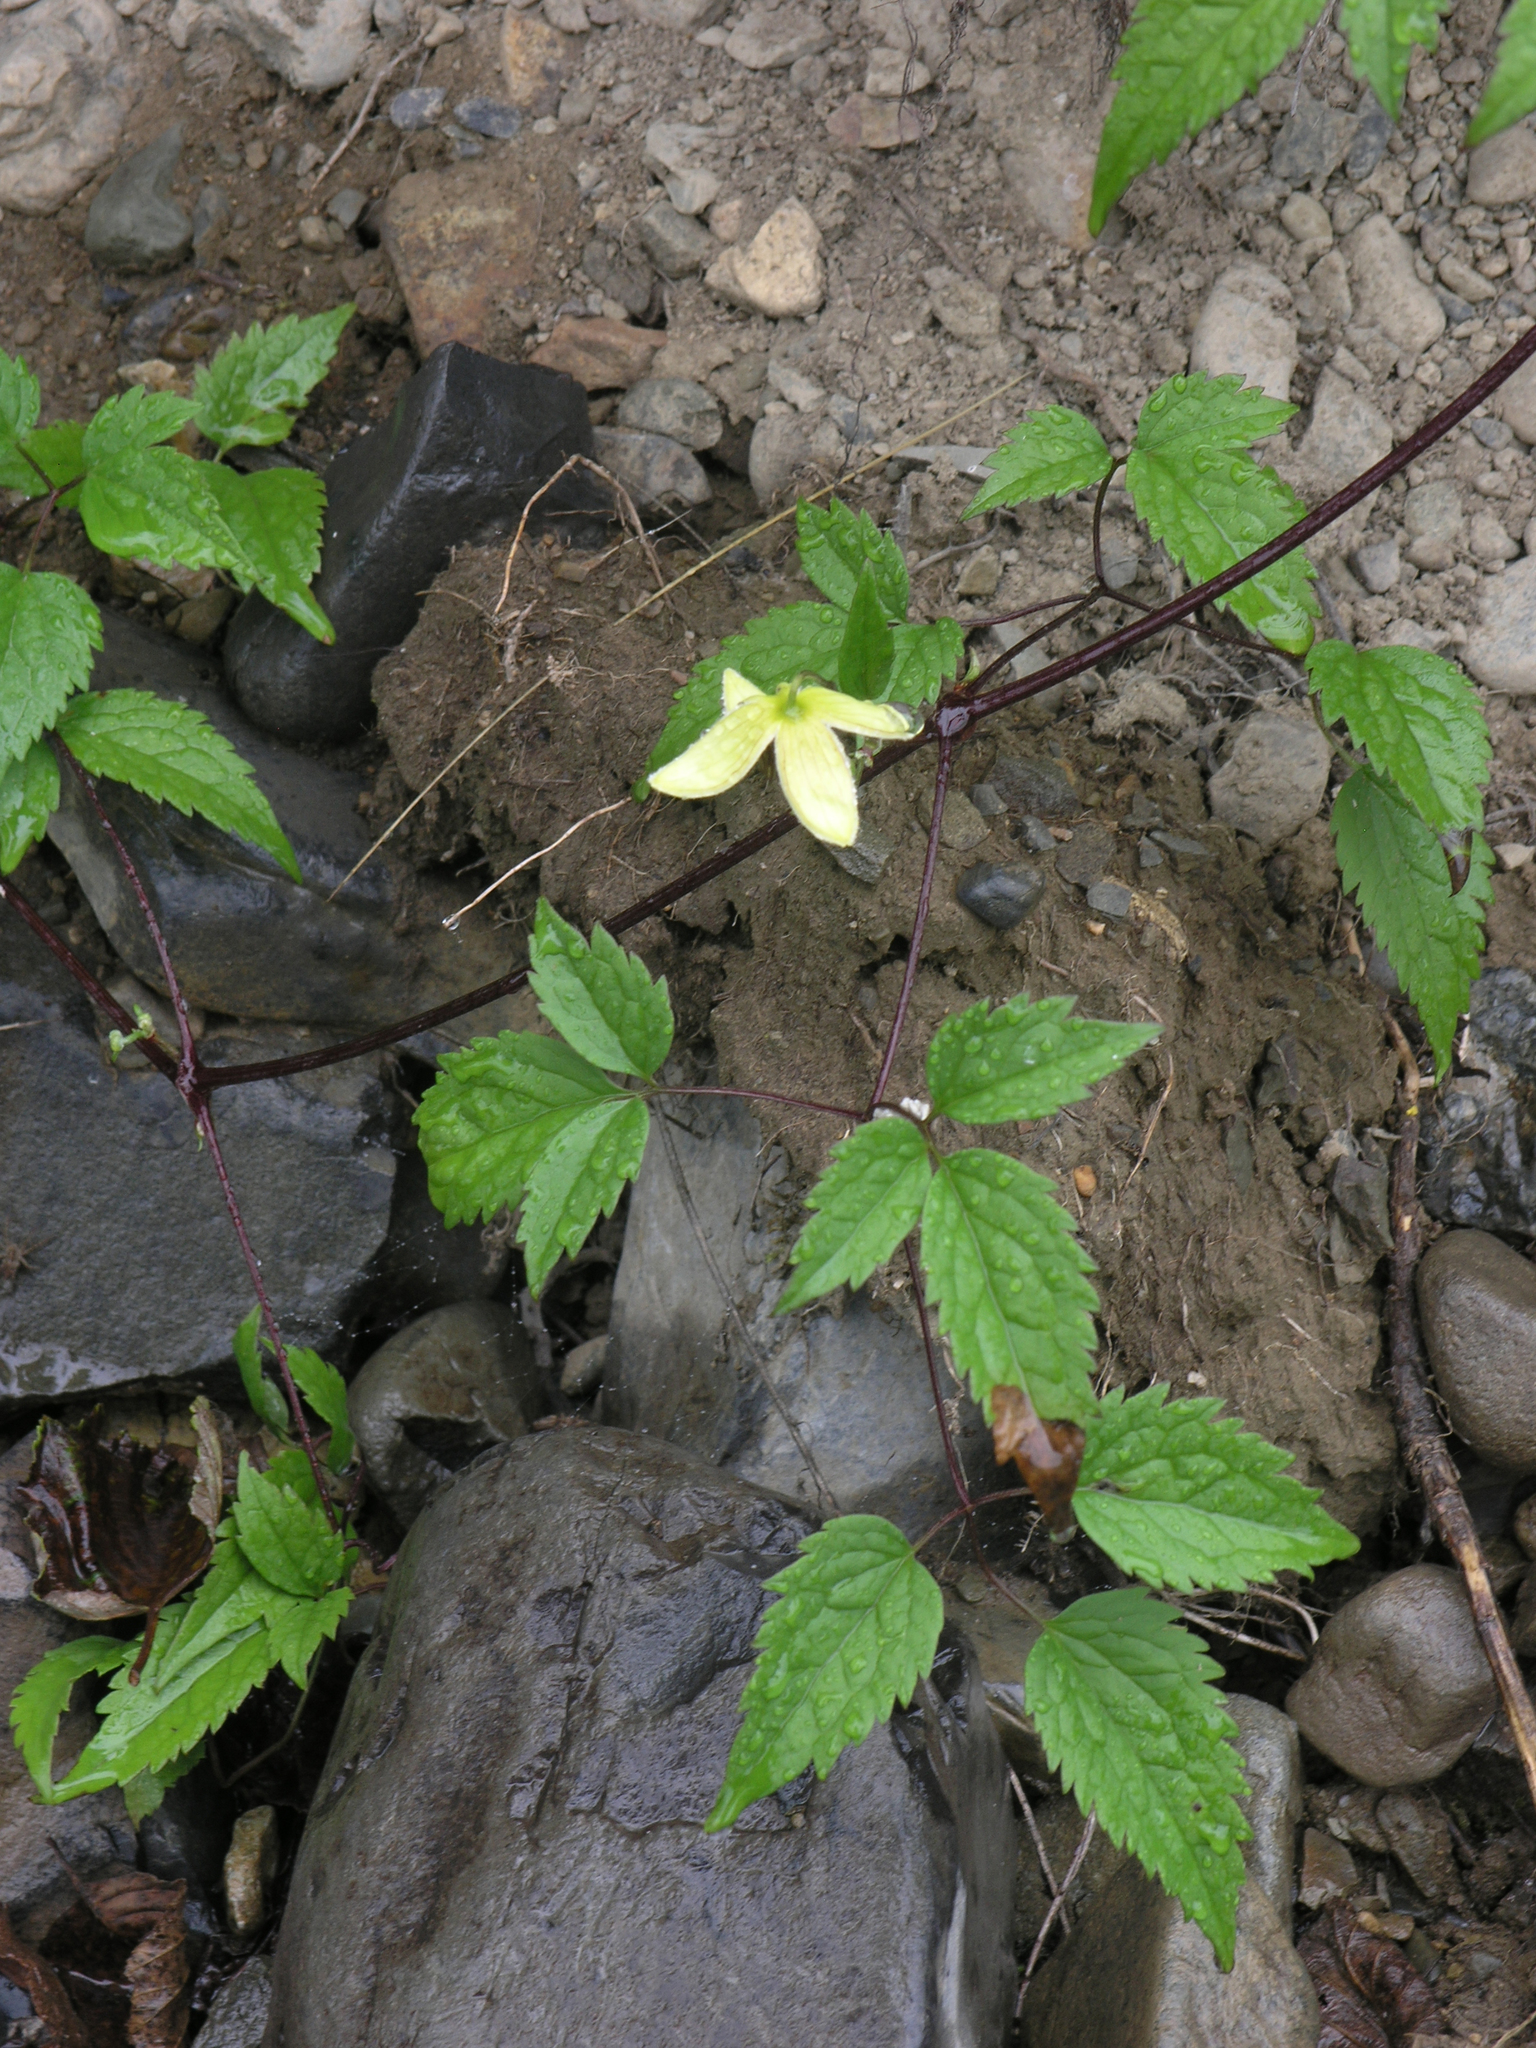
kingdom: Plantae
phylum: Tracheophyta
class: Magnoliopsida
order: Ranunculales
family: Ranunculaceae
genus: Clematis
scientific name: Clematis serratifolia
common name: Korean clematis
